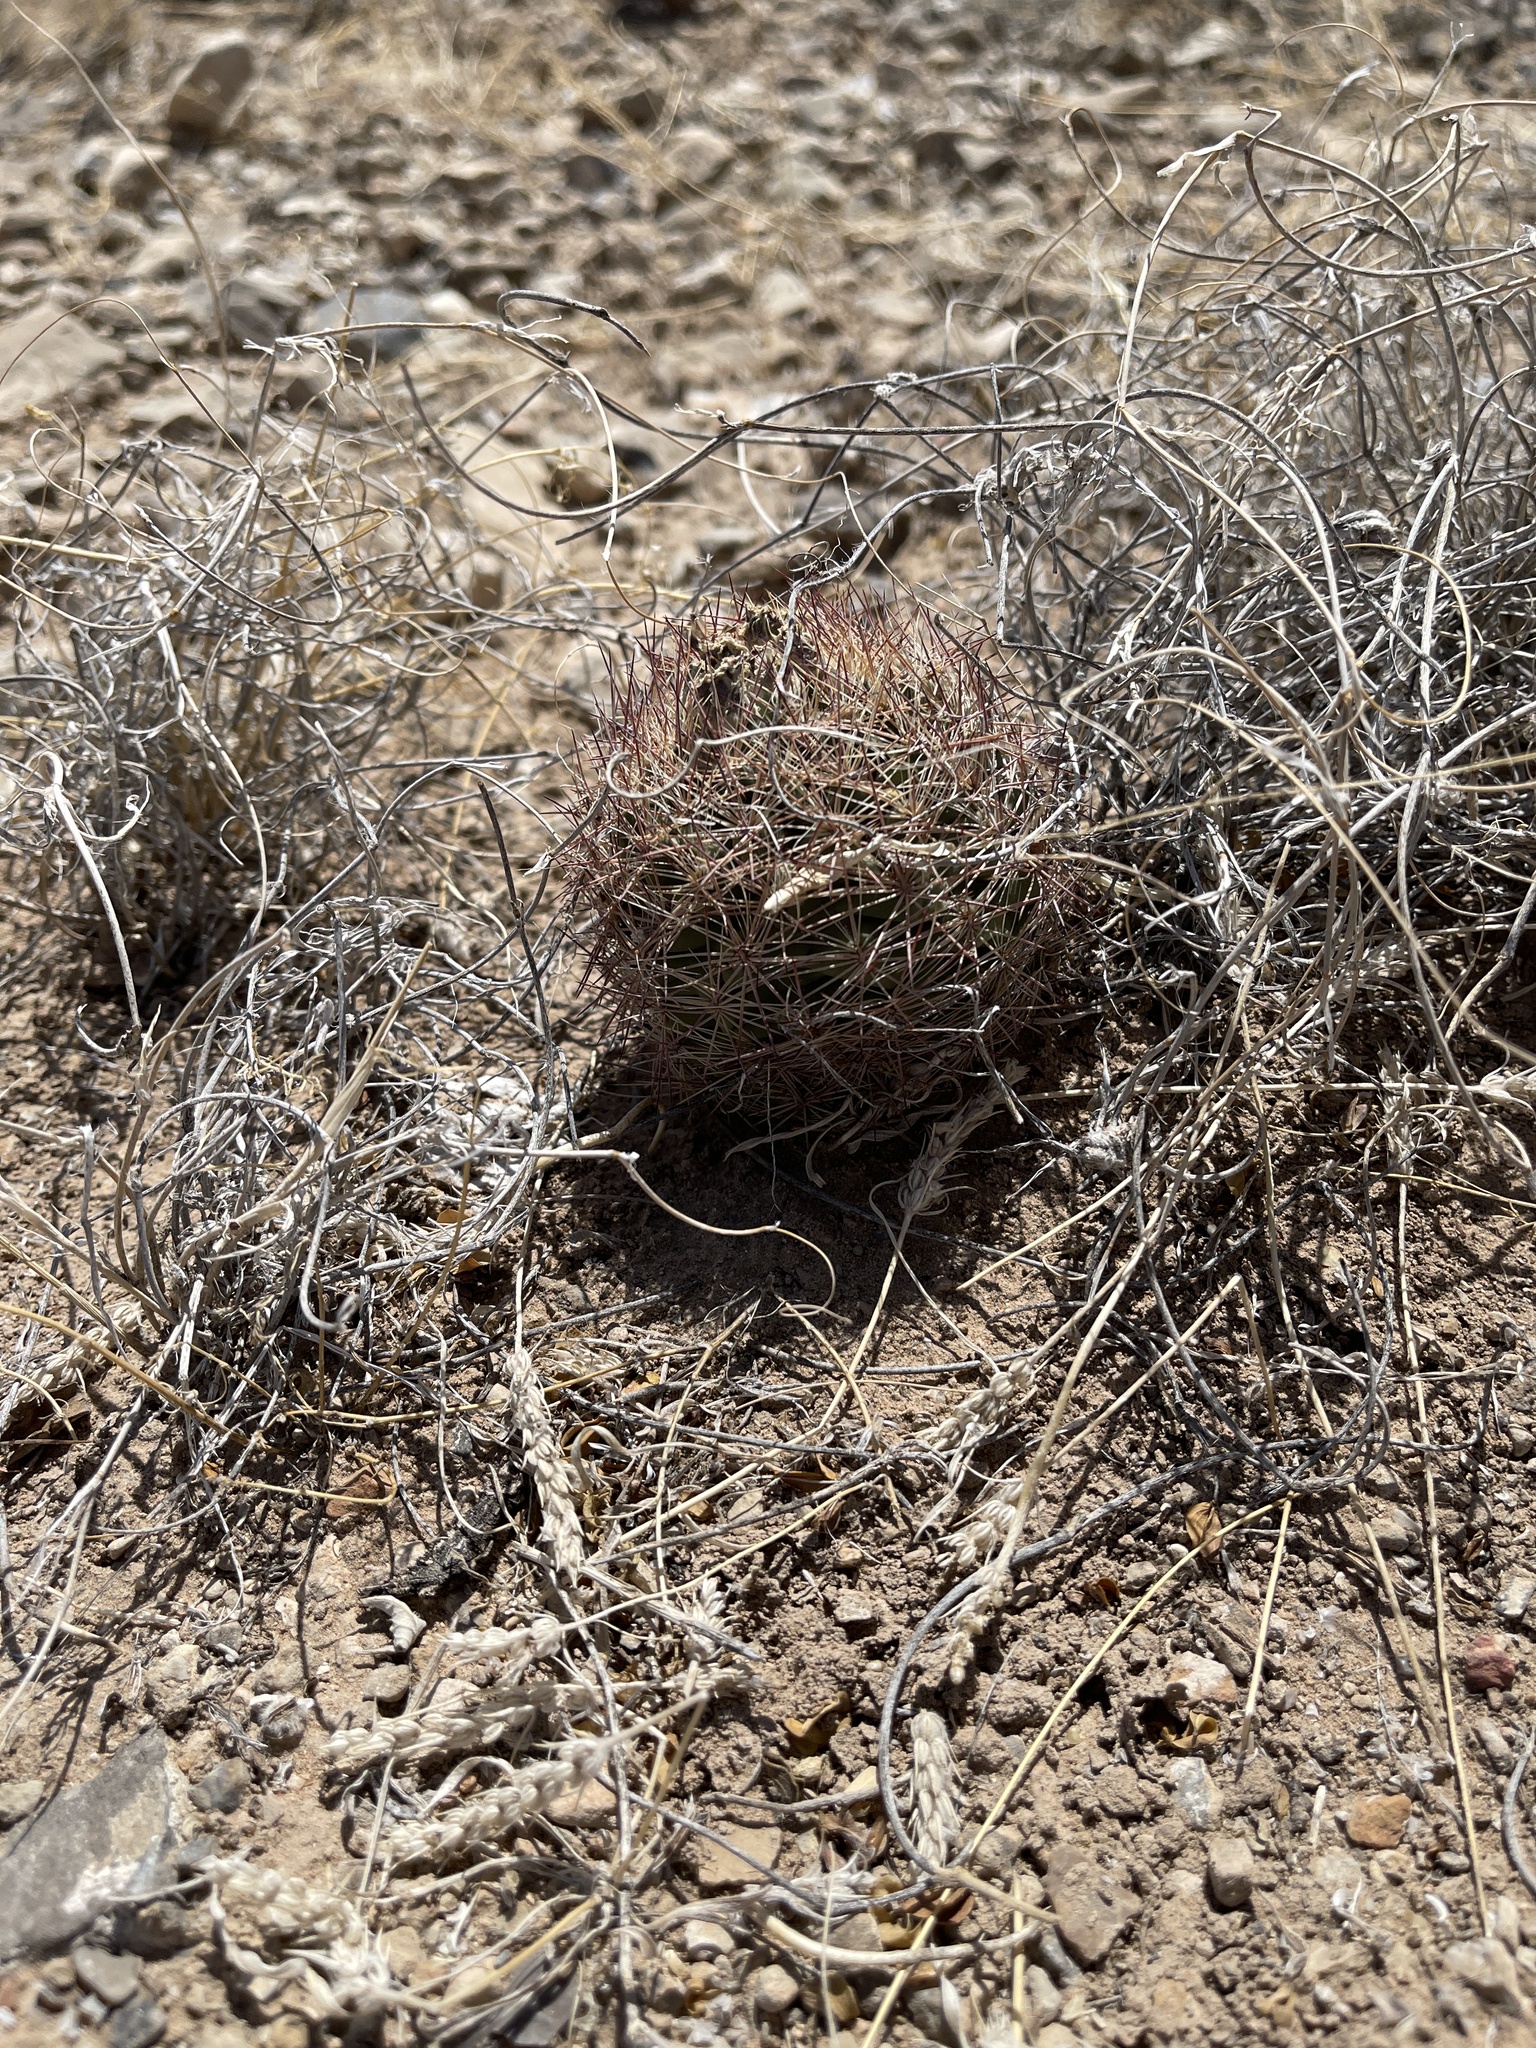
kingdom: Plantae
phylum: Tracheophyta
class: Magnoliopsida
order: Caryophyllales
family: Cactaceae
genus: Sclerocactus
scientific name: Sclerocactus intertextus
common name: White fish-hook cactus
